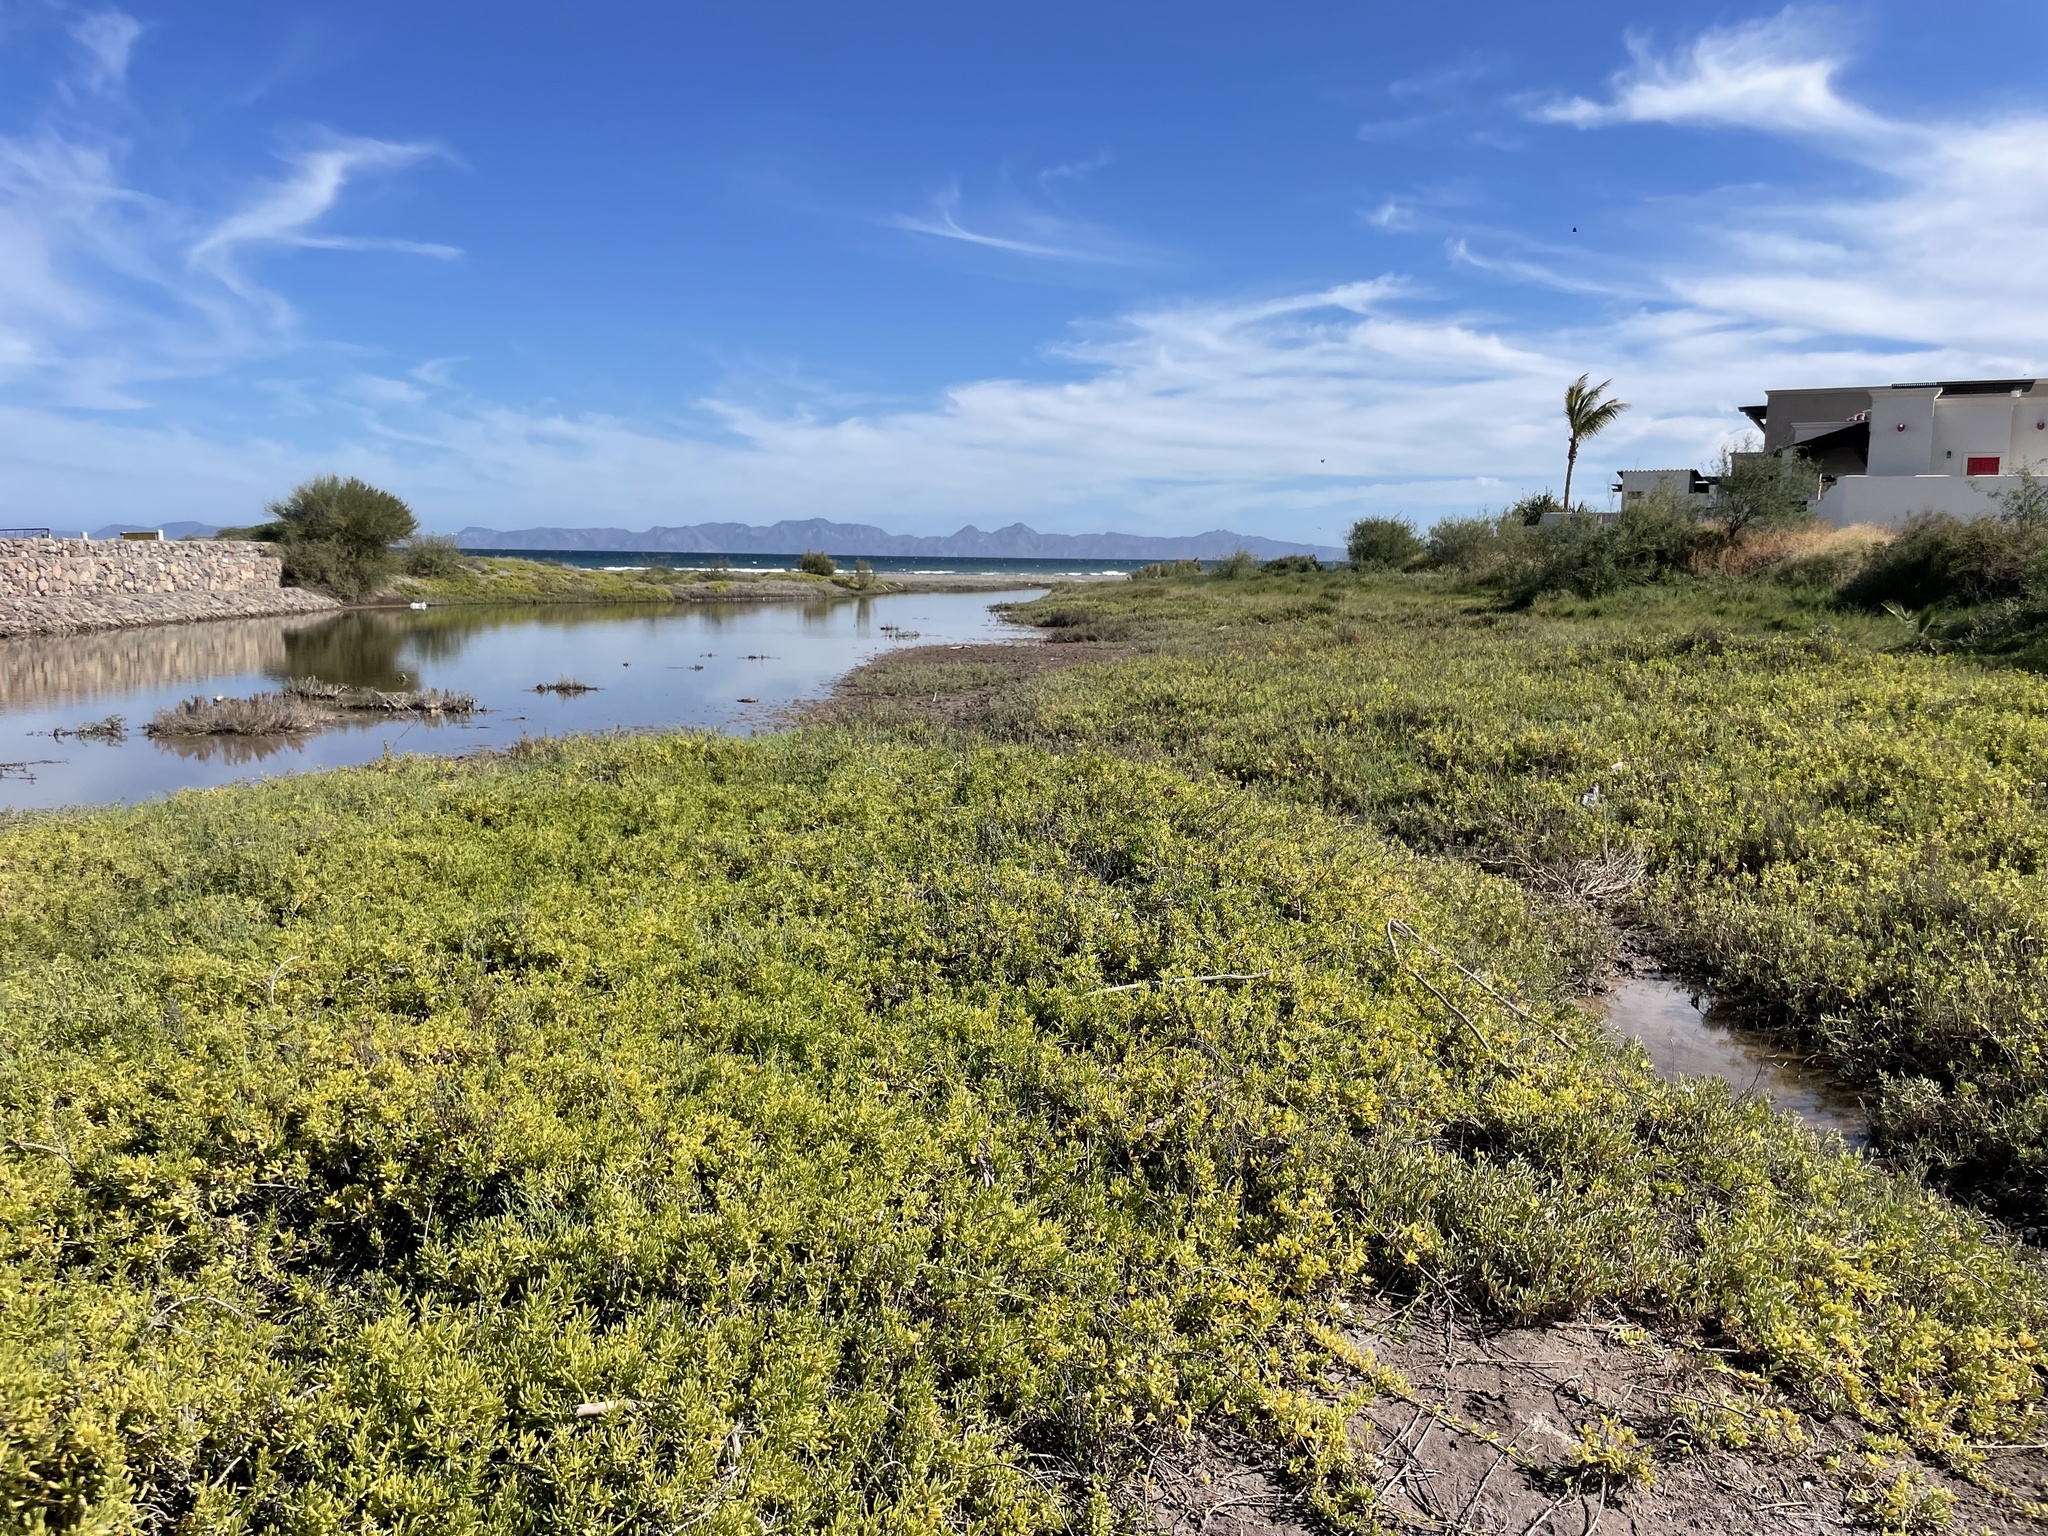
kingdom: Plantae
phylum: Tracheophyta
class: Magnoliopsida
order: Brassicales
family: Bataceae
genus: Batis
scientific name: Batis maritima
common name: Turtleweed
